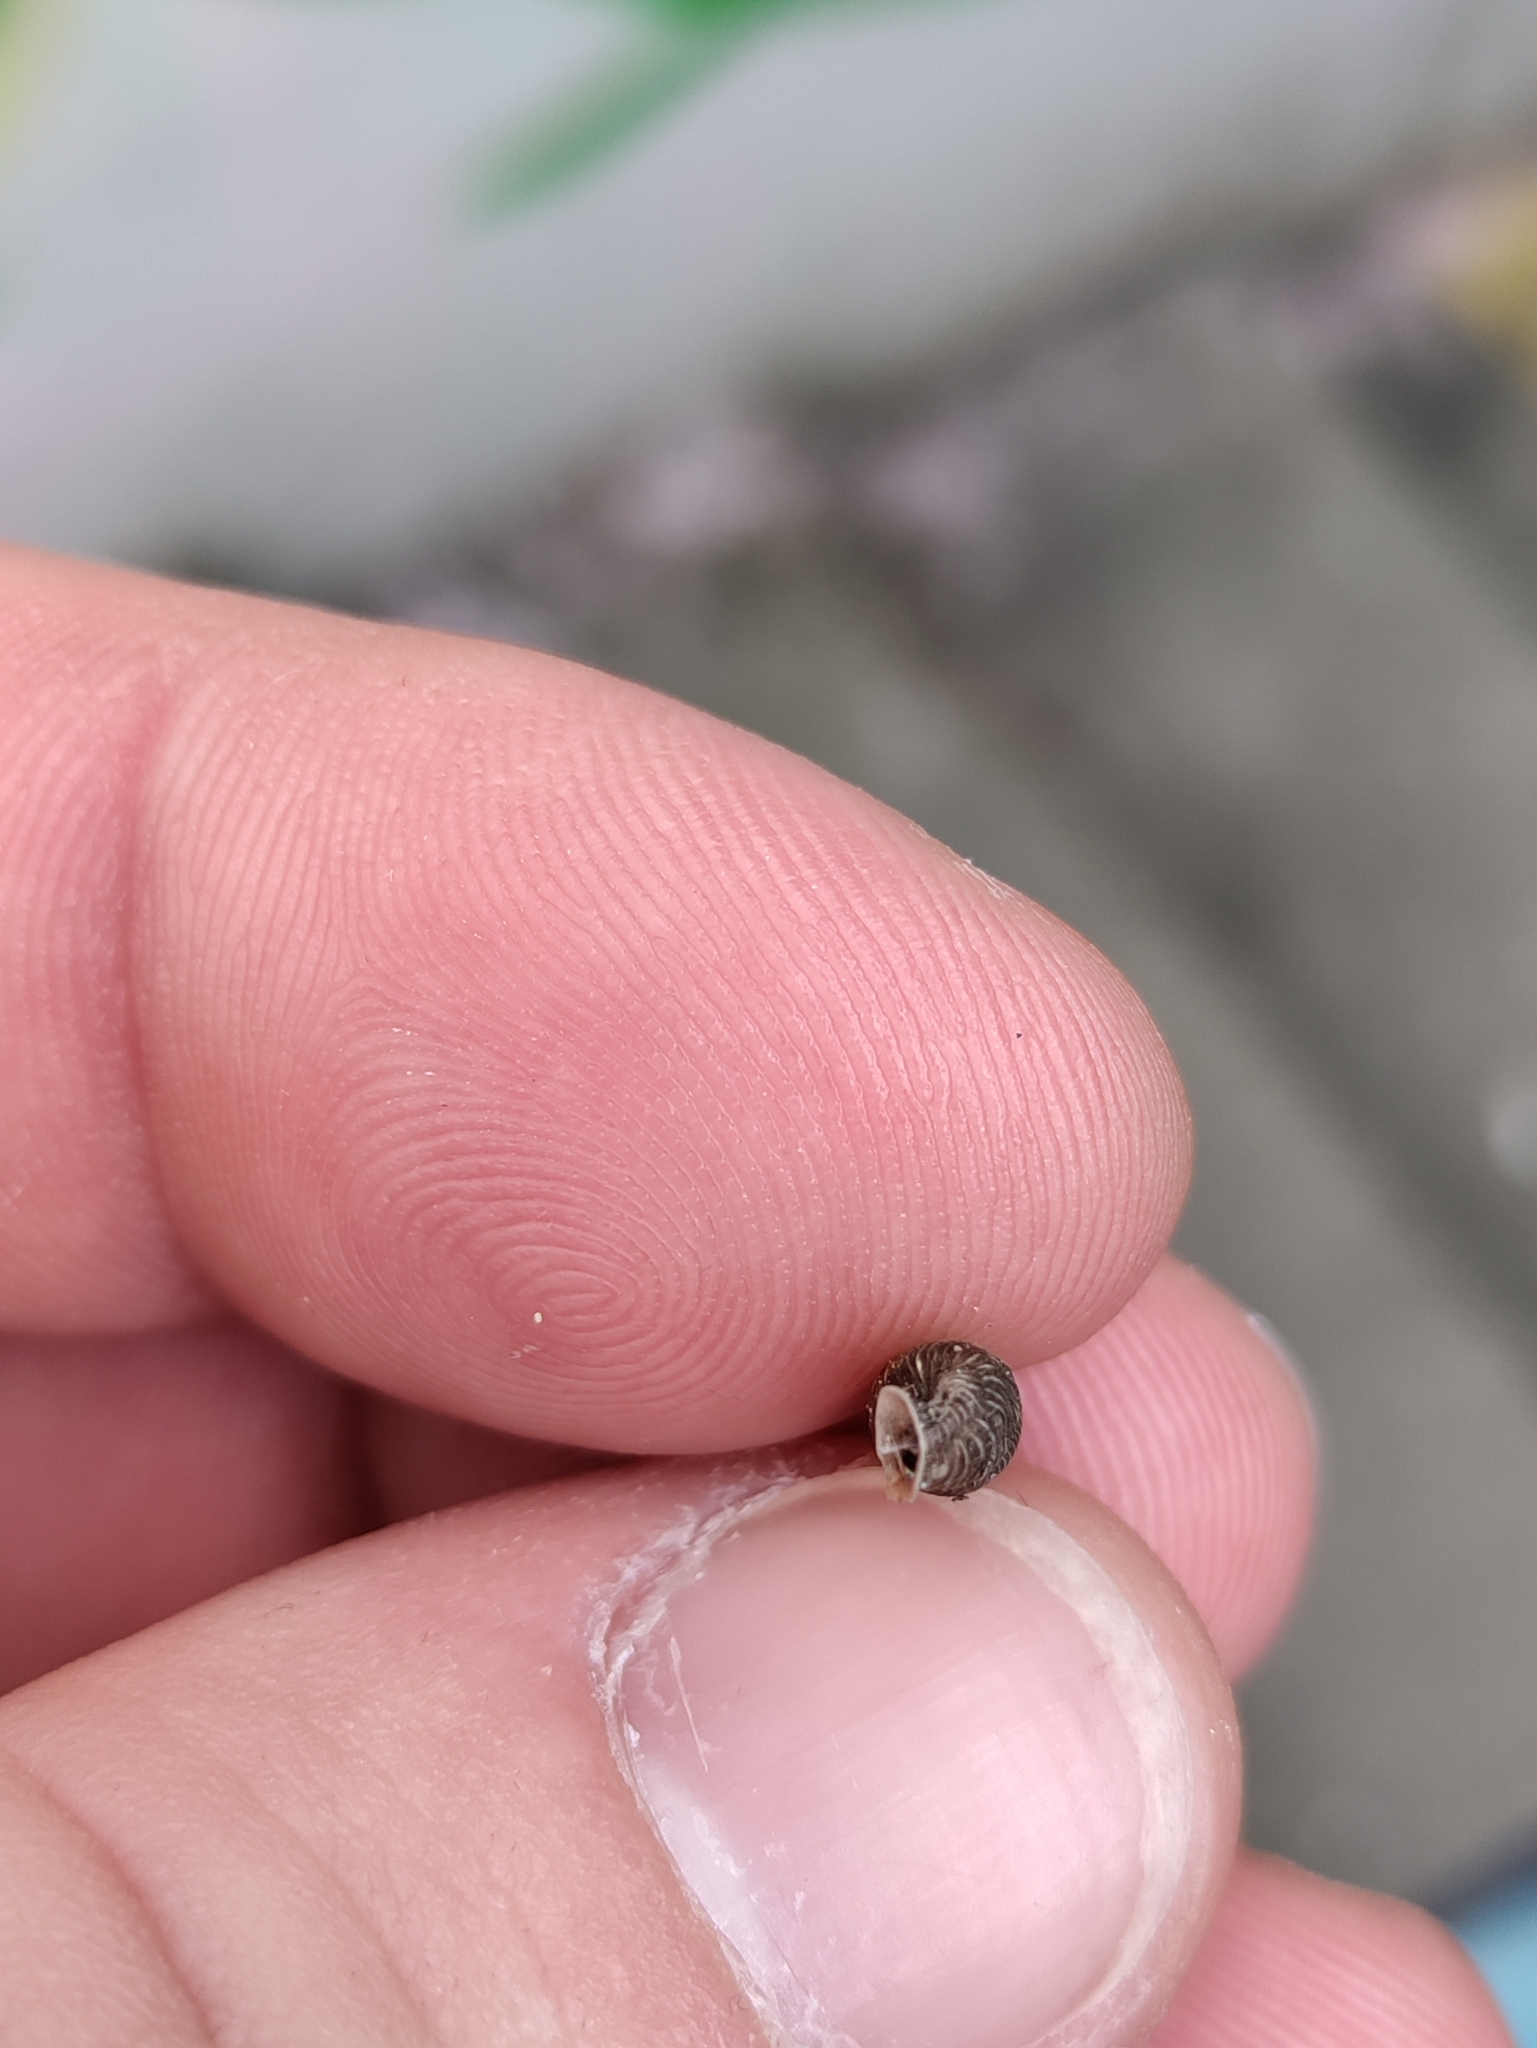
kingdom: Animalia
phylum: Mollusca
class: Gastropoda
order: Stylommatophora
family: Clausiliidae
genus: Alinda
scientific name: Alinda biplicata
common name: Thames door snail
